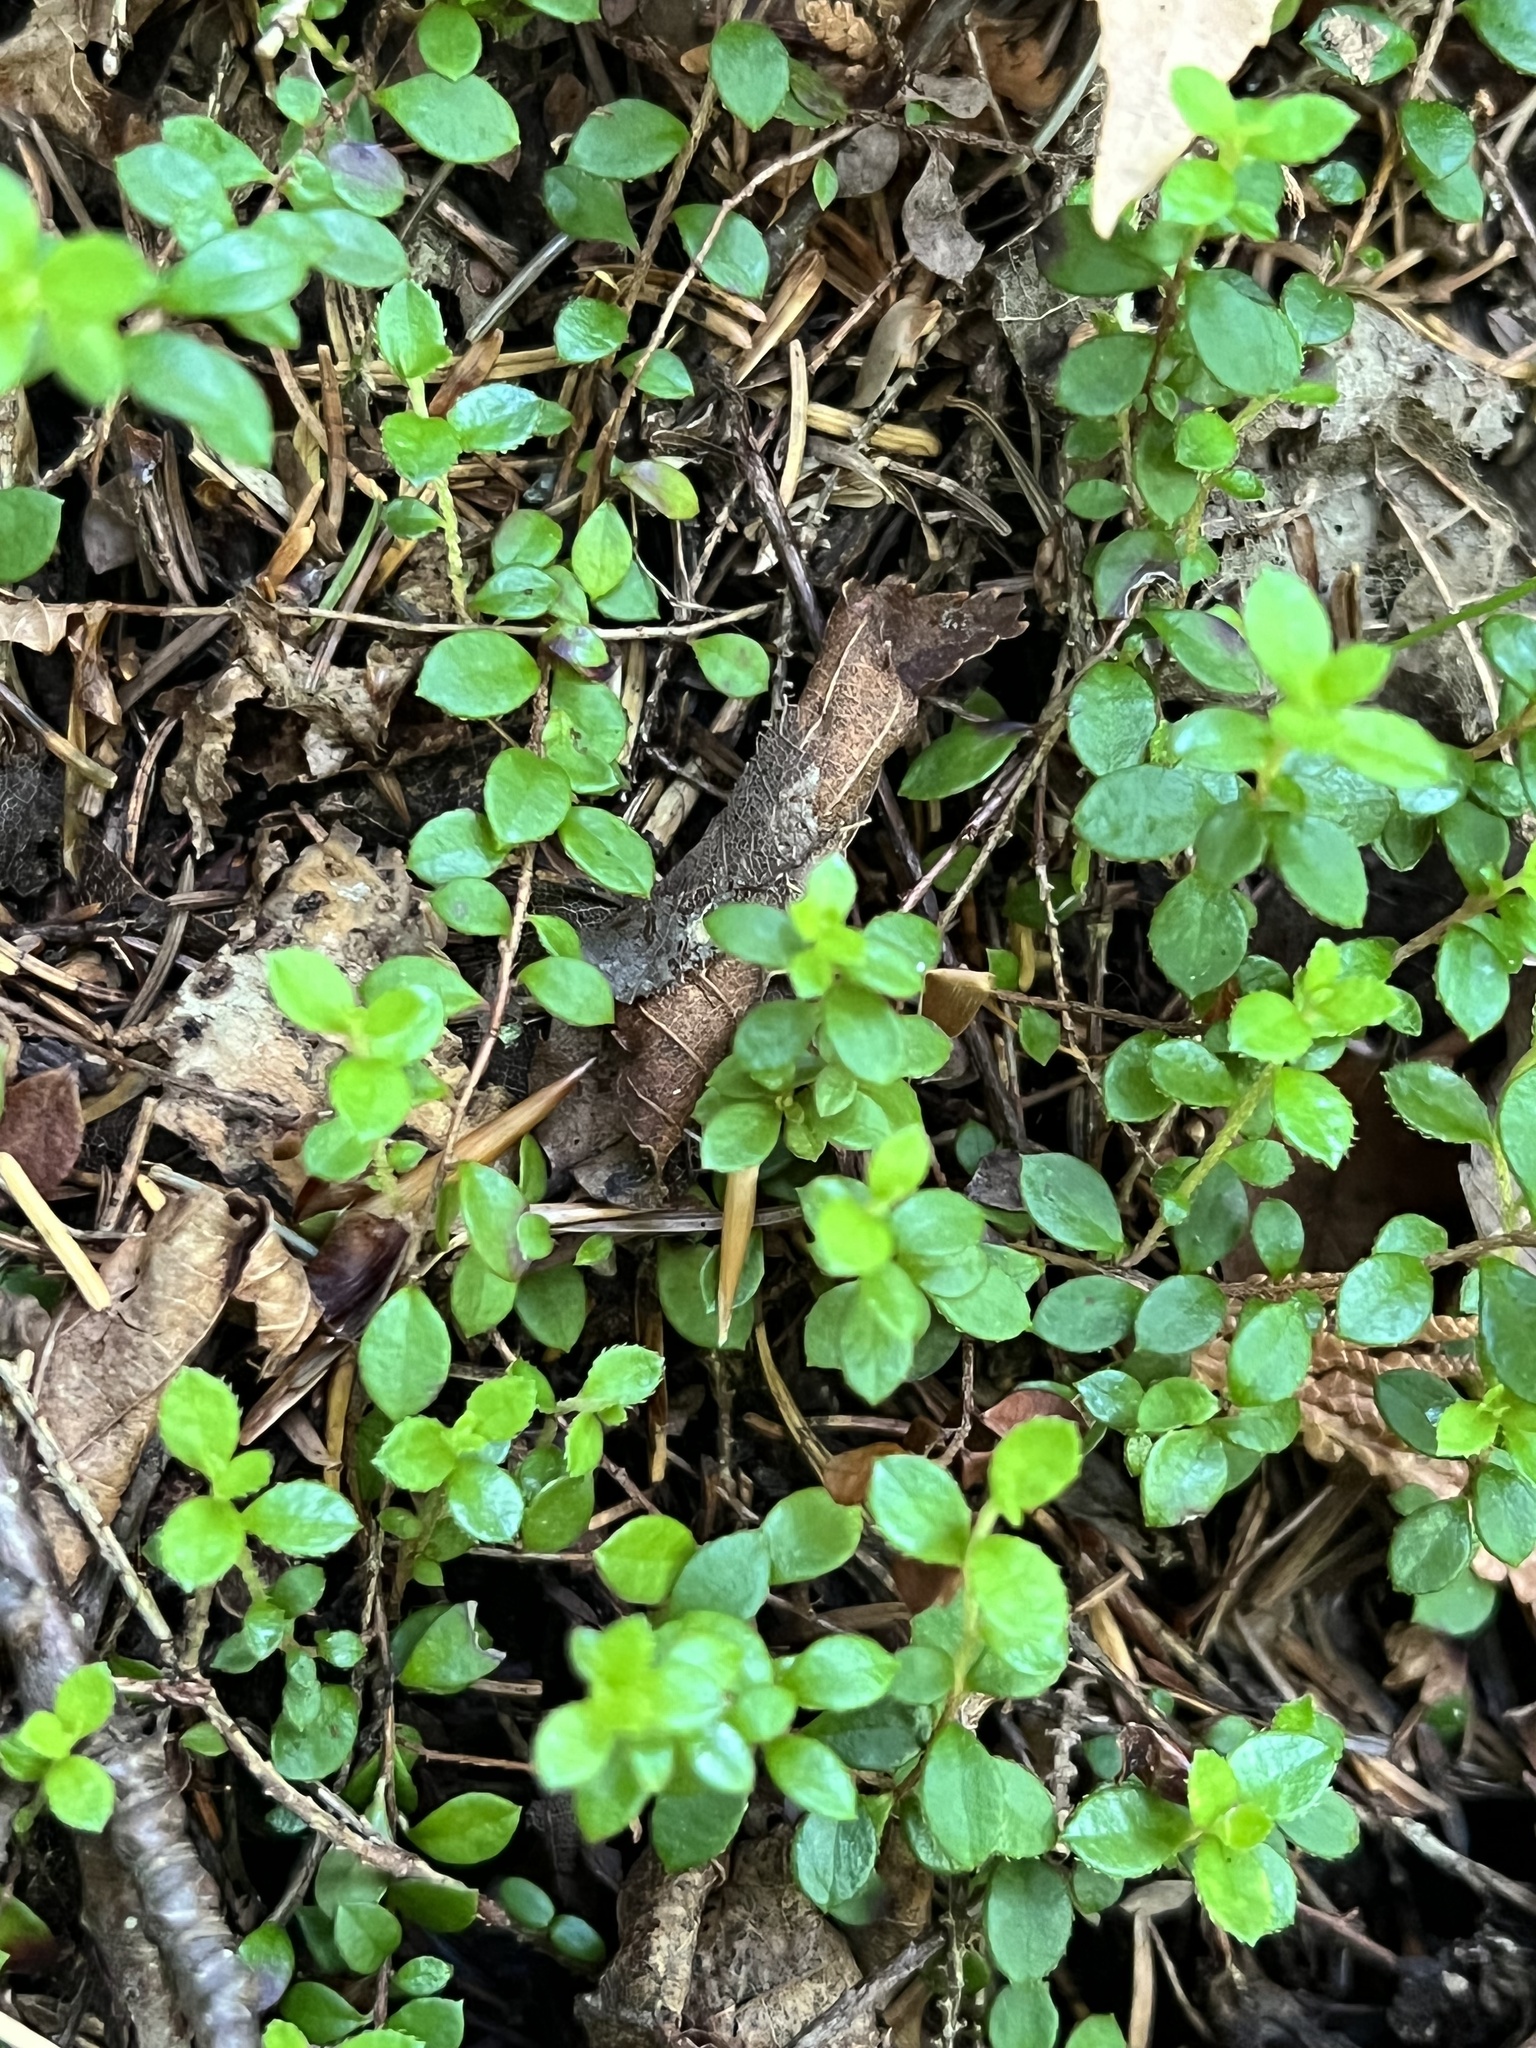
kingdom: Plantae
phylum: Tracheophyta
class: Magnoliopsida
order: Ericales
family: Ericaceae
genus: Gaultheria
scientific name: Gaultheria hispidula
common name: Cancer wintergreen
